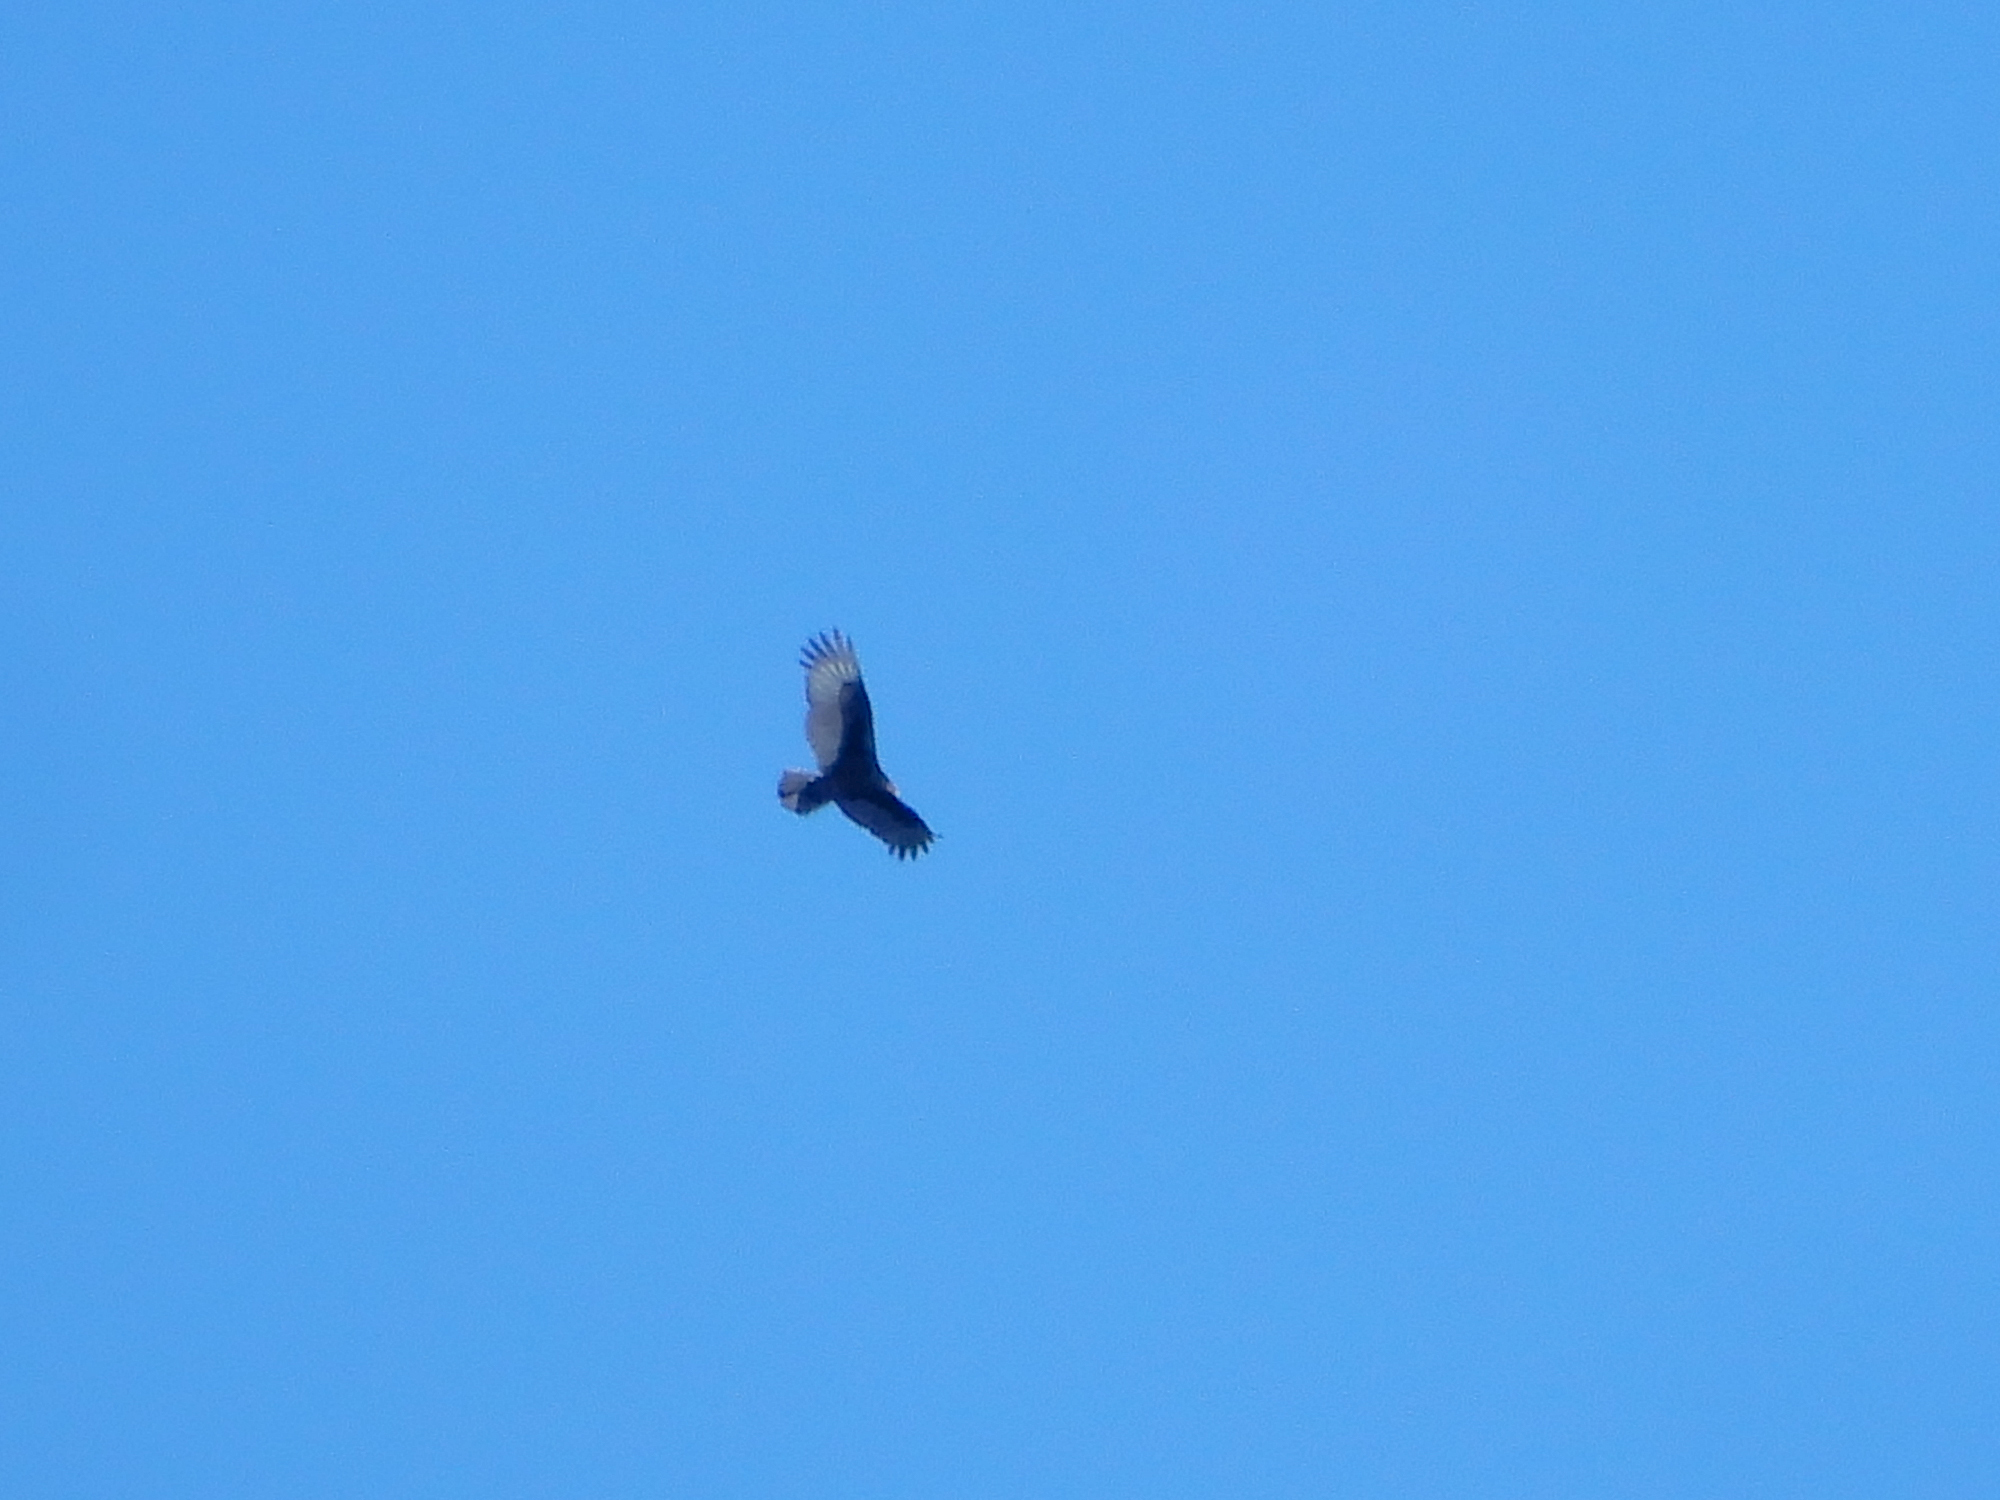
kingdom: Animalia
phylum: Chordata
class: Aves
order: Accipitriformes
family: Cathartidae
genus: Cathartes
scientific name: Cathartes aura
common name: Turkey vulture
